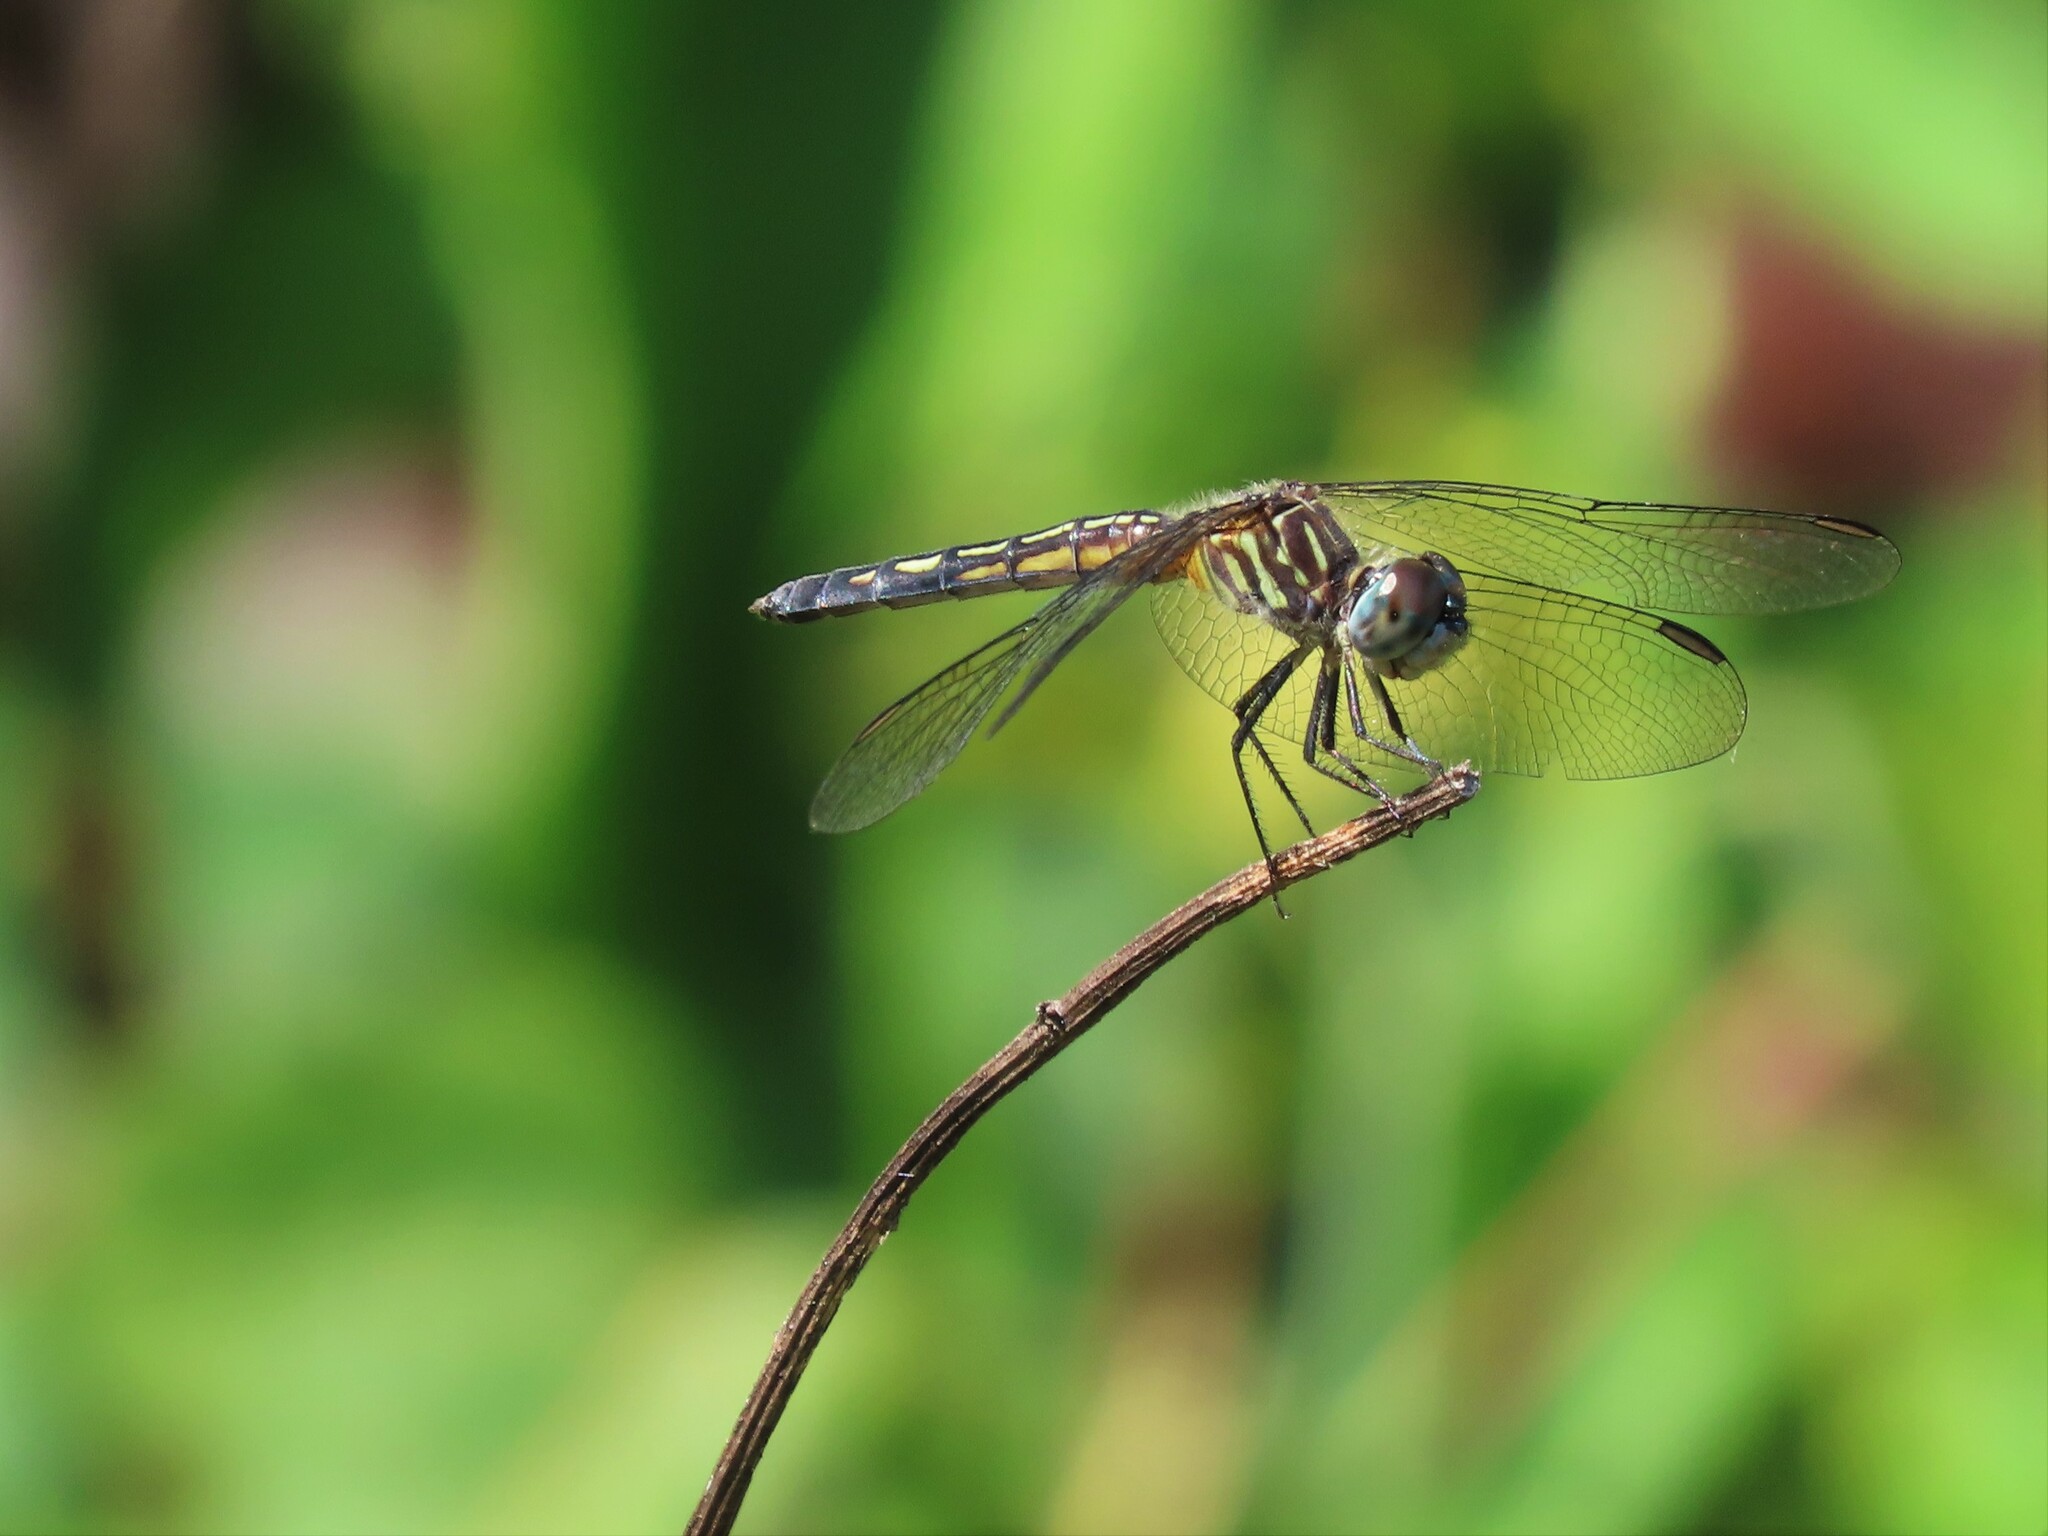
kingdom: Animalia
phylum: Arthropoda
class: Insecta
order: Odonata
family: Libellulidae
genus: Pachydiplax
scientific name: Pachydiplax longipennis
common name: Blue dasher
